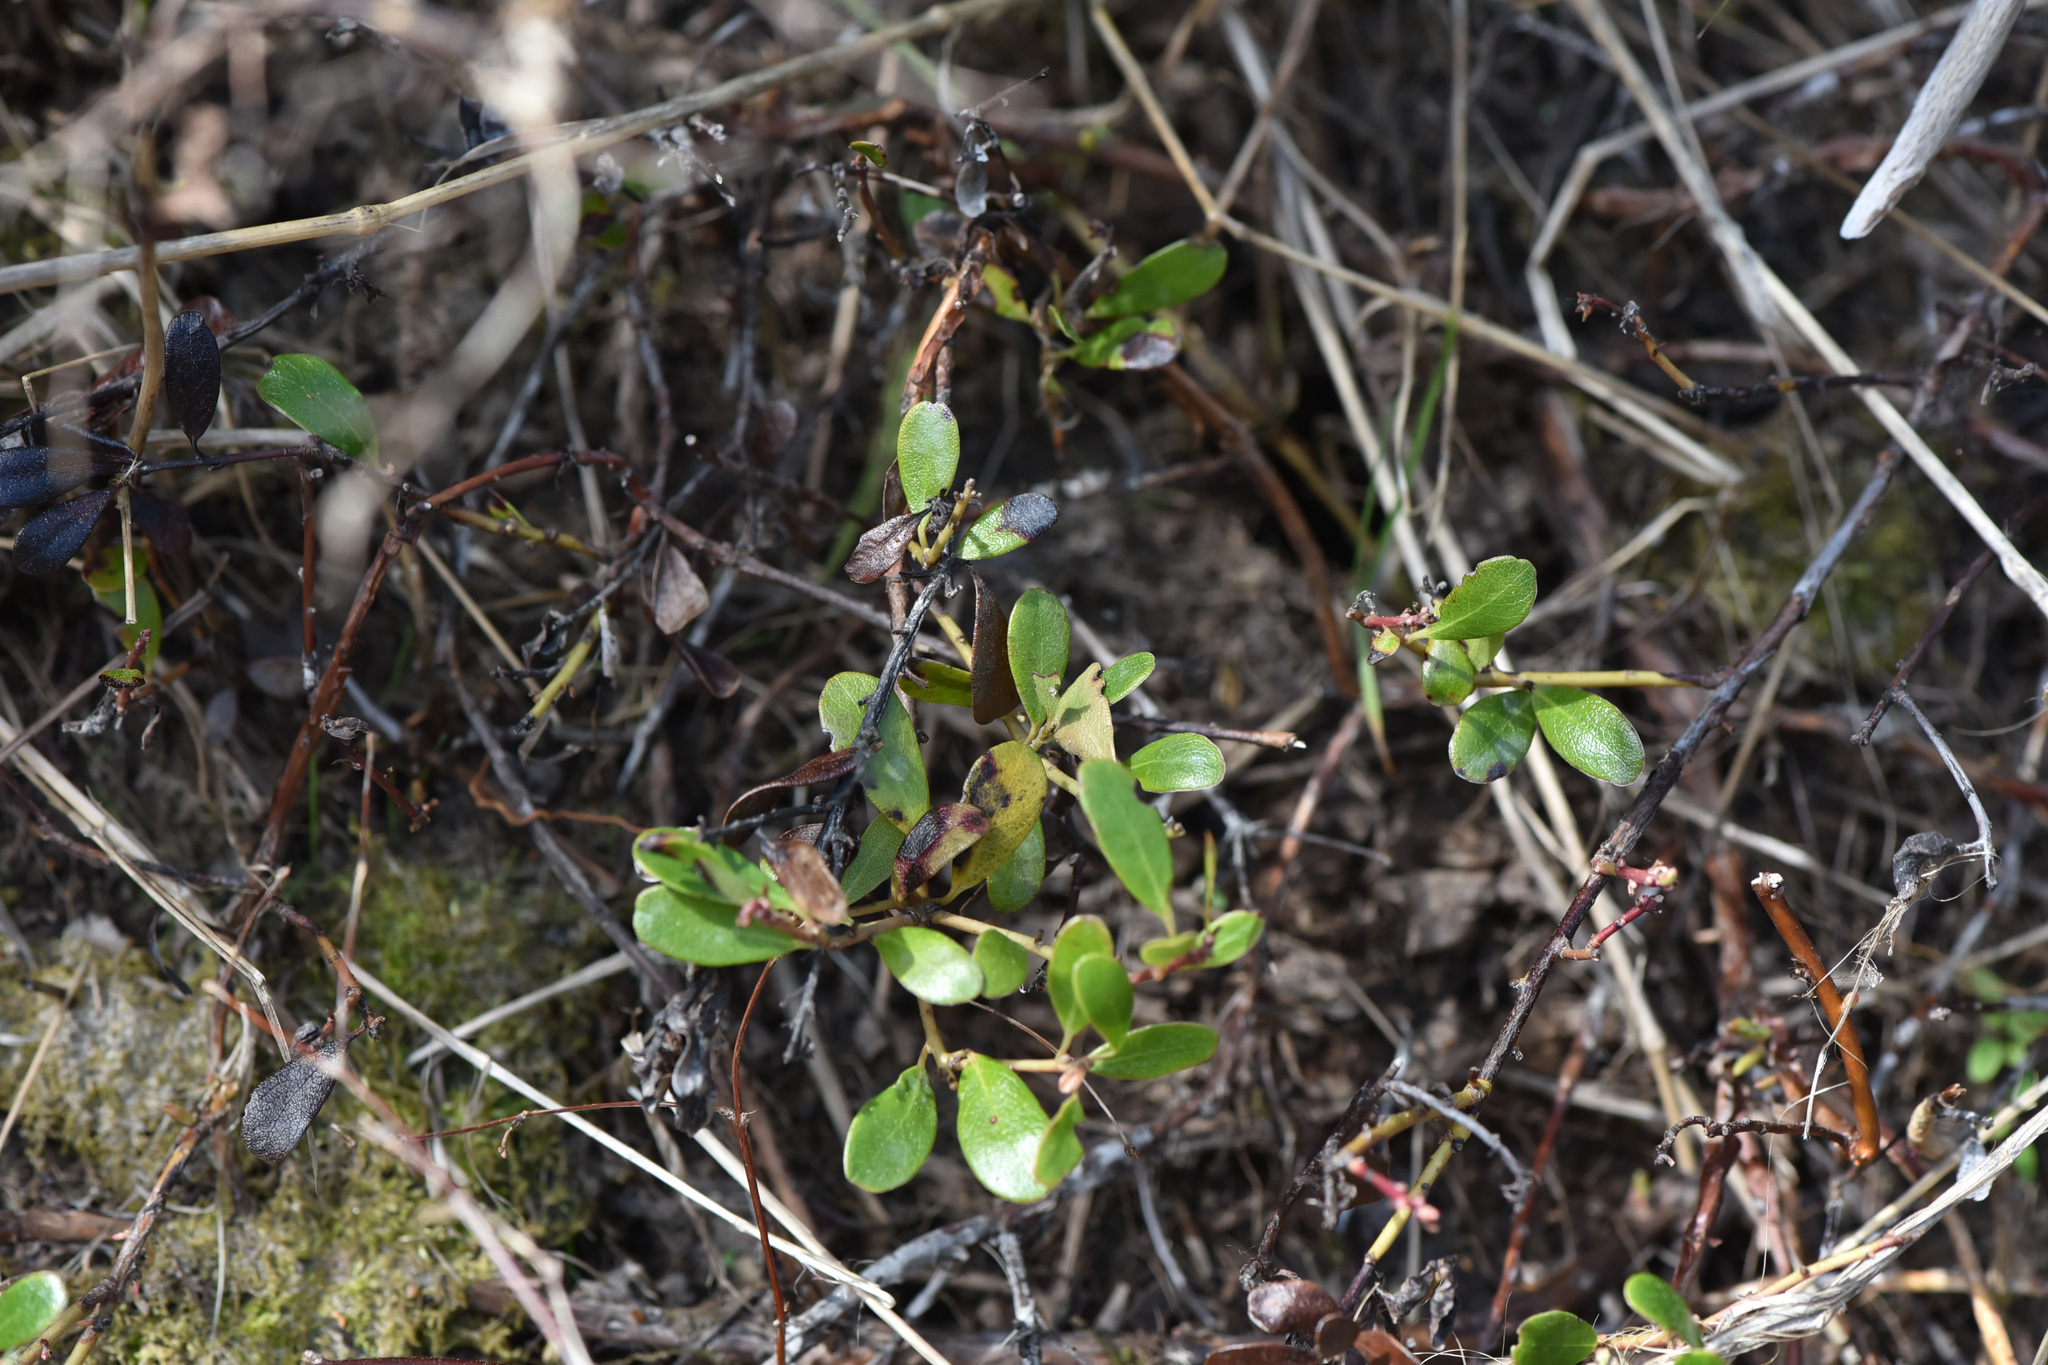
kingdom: Plantae
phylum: Tracheophyta
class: Magnoliopsida
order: Ericales
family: Ericaceae
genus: Arctostaphylos
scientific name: Arctostaphylos uva-ursi
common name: Bearberry
